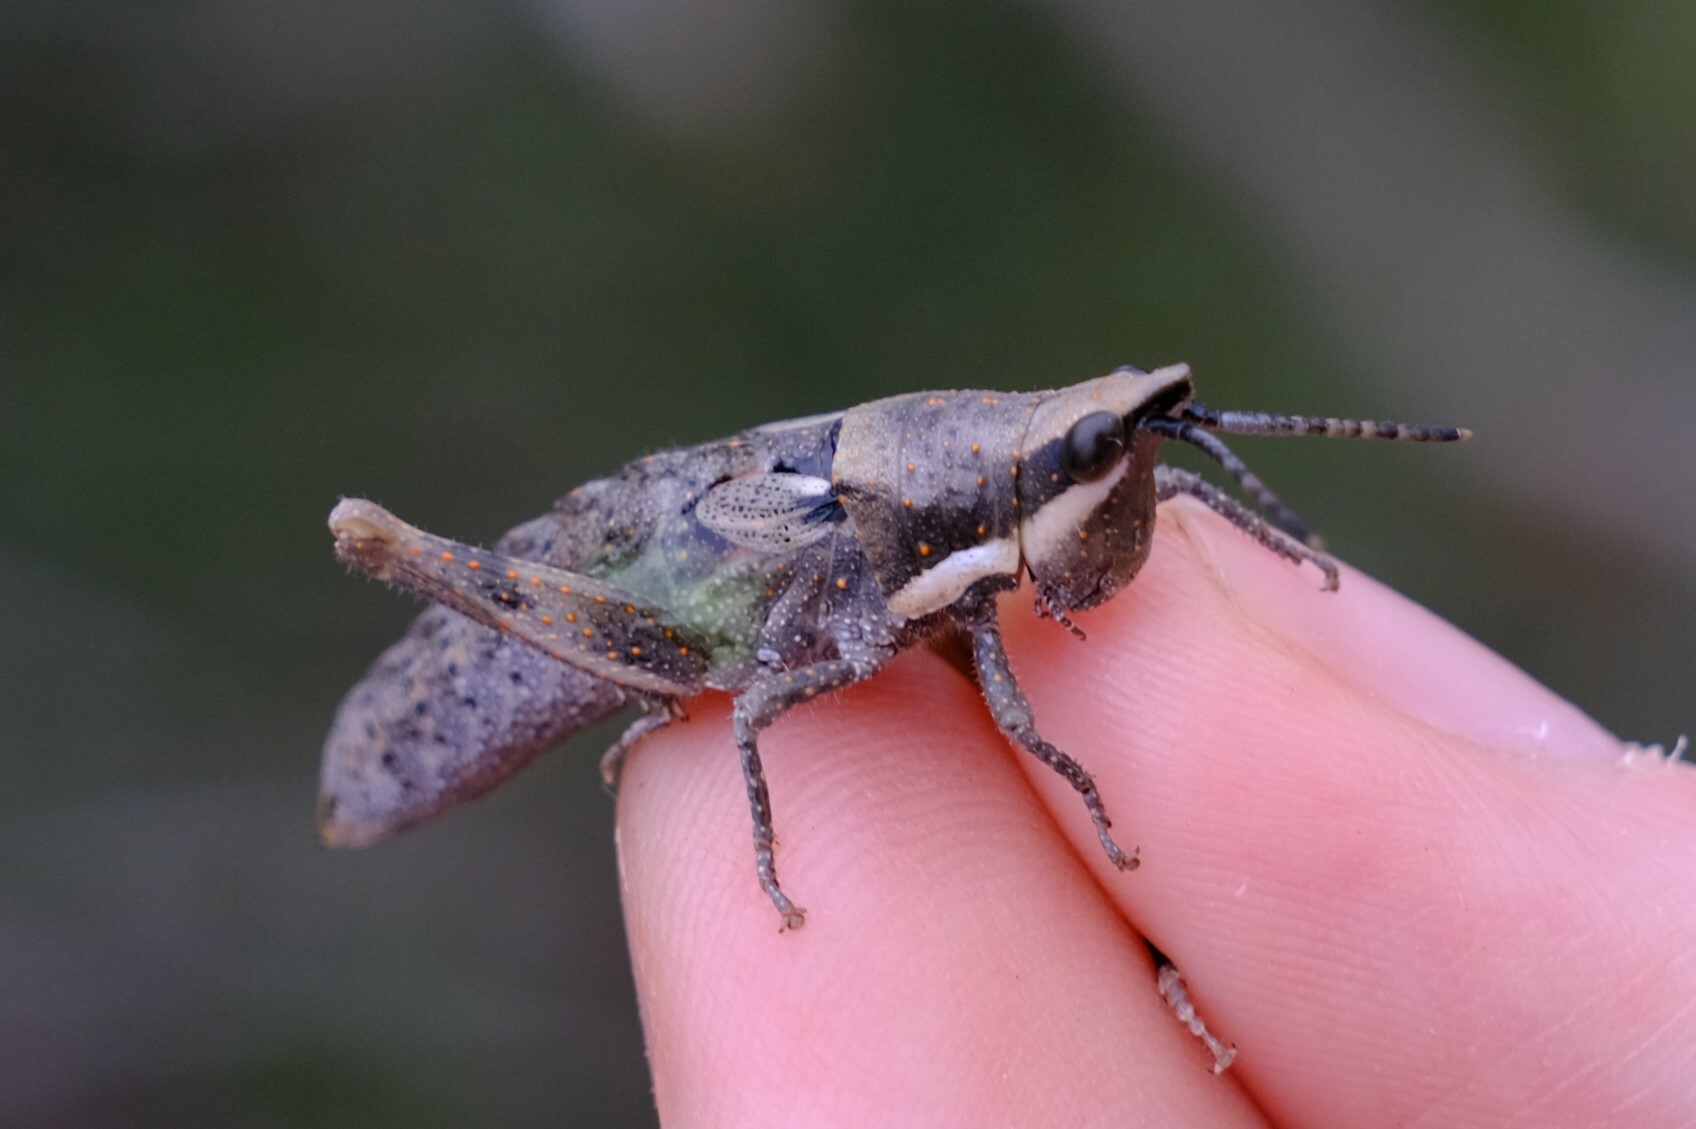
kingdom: Animalia
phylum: Arthropoda
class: Insecta
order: Orthoptera
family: Pyrgomorphidae
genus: Monistria
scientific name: Monistria latevittata
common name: Western coastal pyrgomorph
